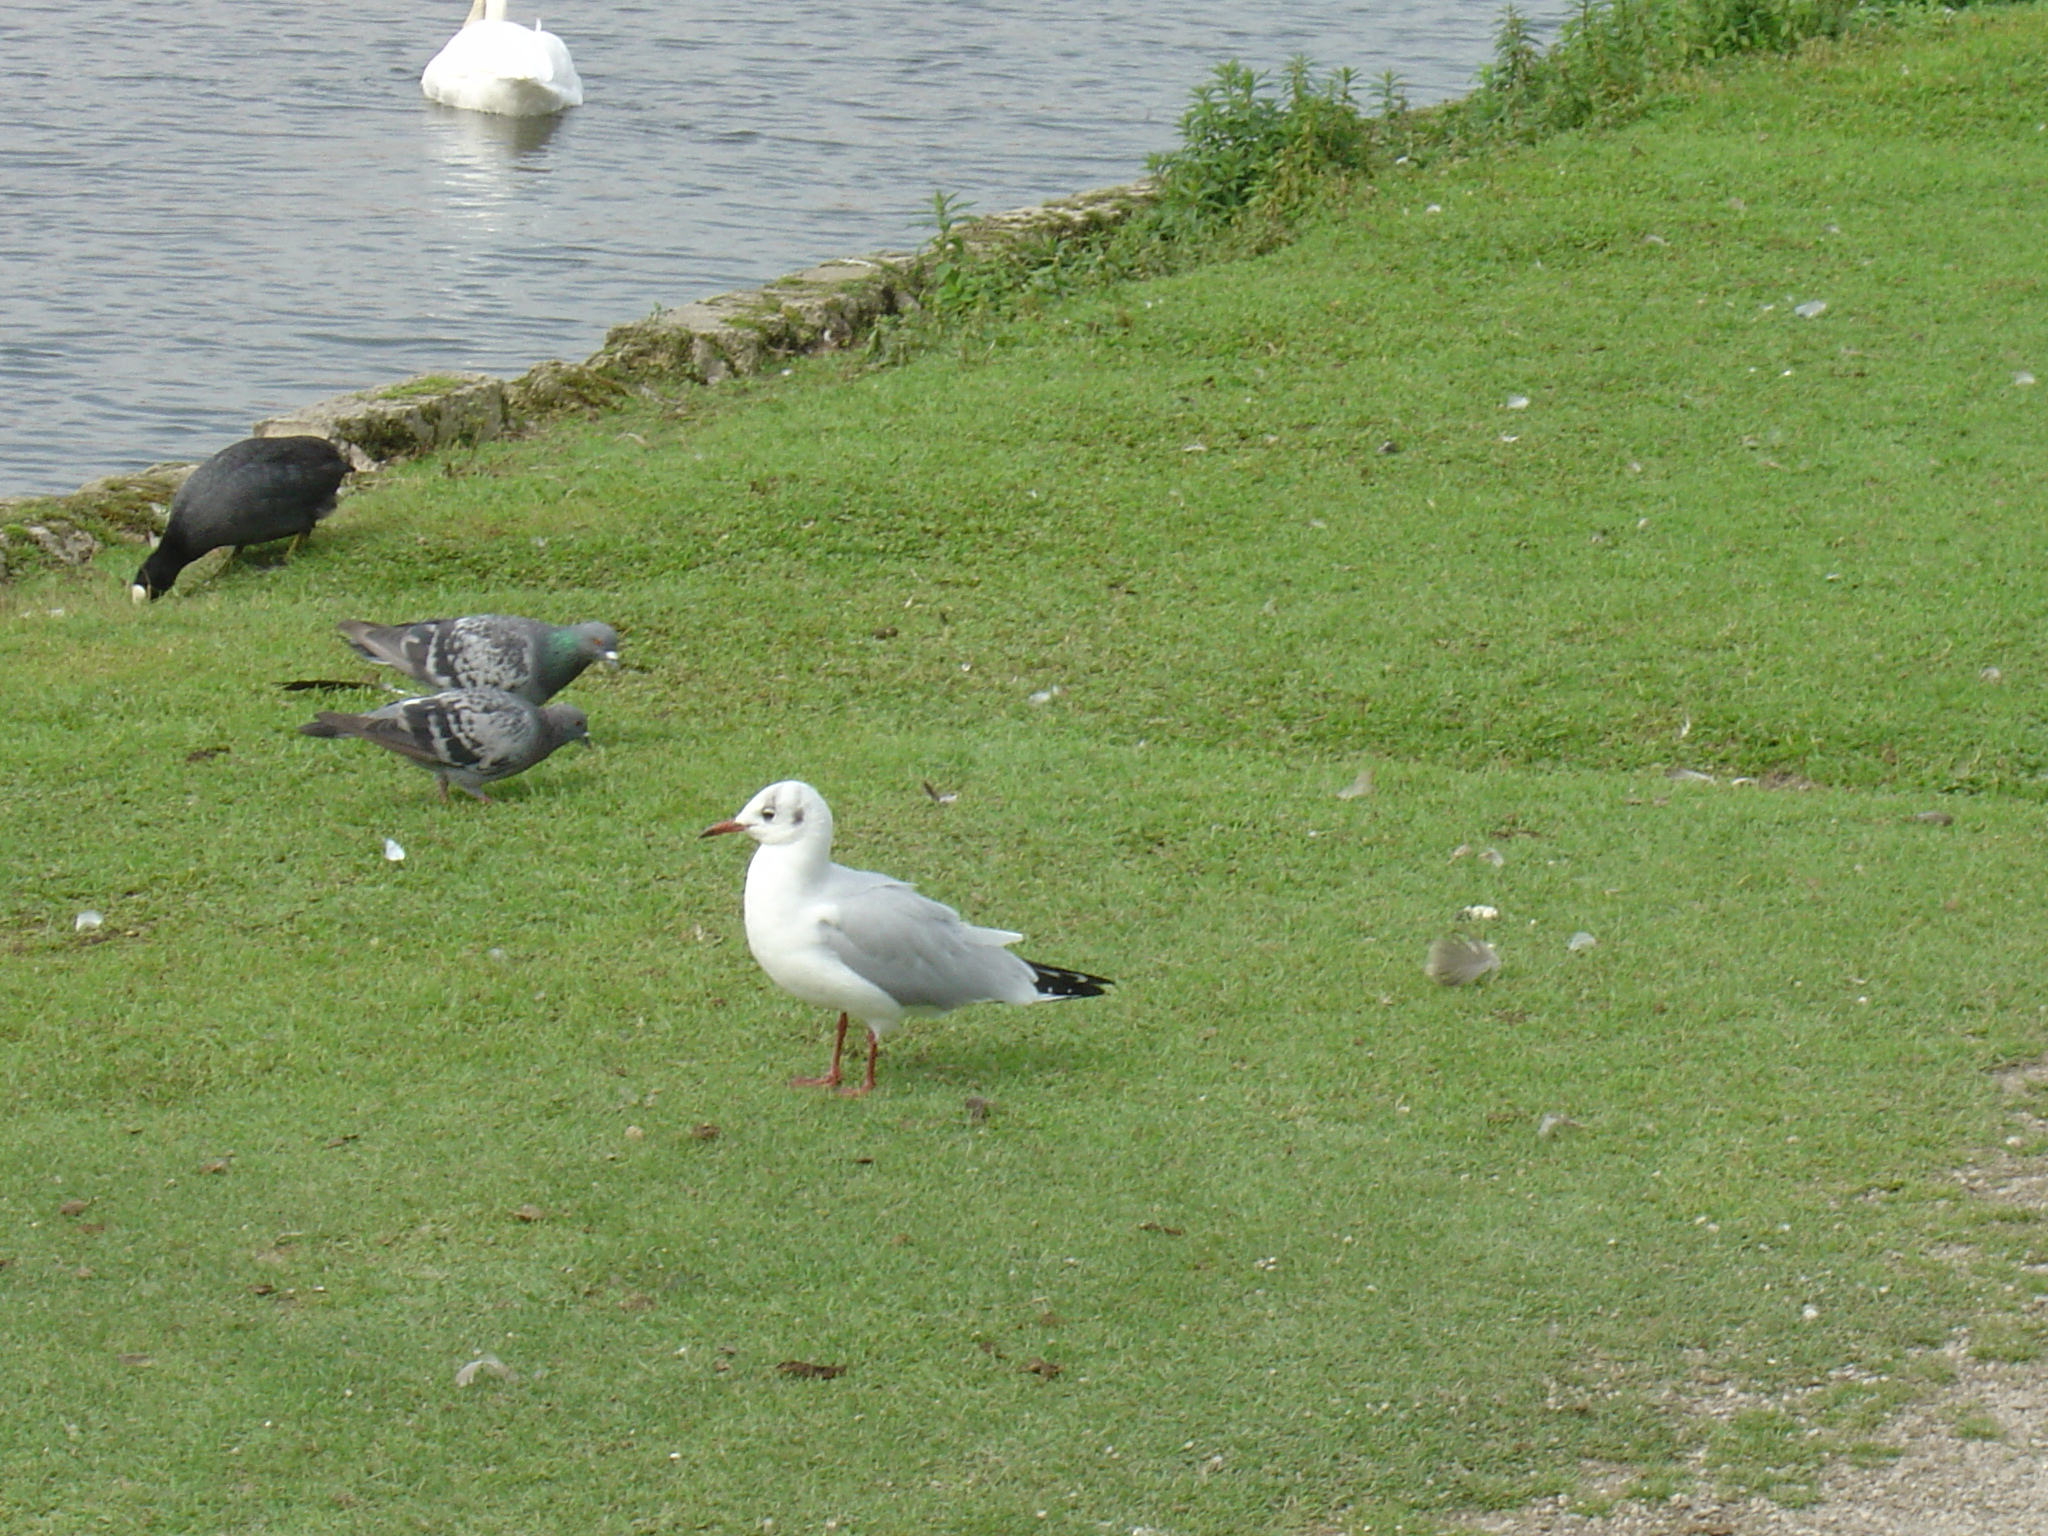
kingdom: Animalia
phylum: Chordata
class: Aves
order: Charadriiformes
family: Laridae
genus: Chroicocephalus
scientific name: Chroicocephalus ridibundus
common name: Black-headed gull
